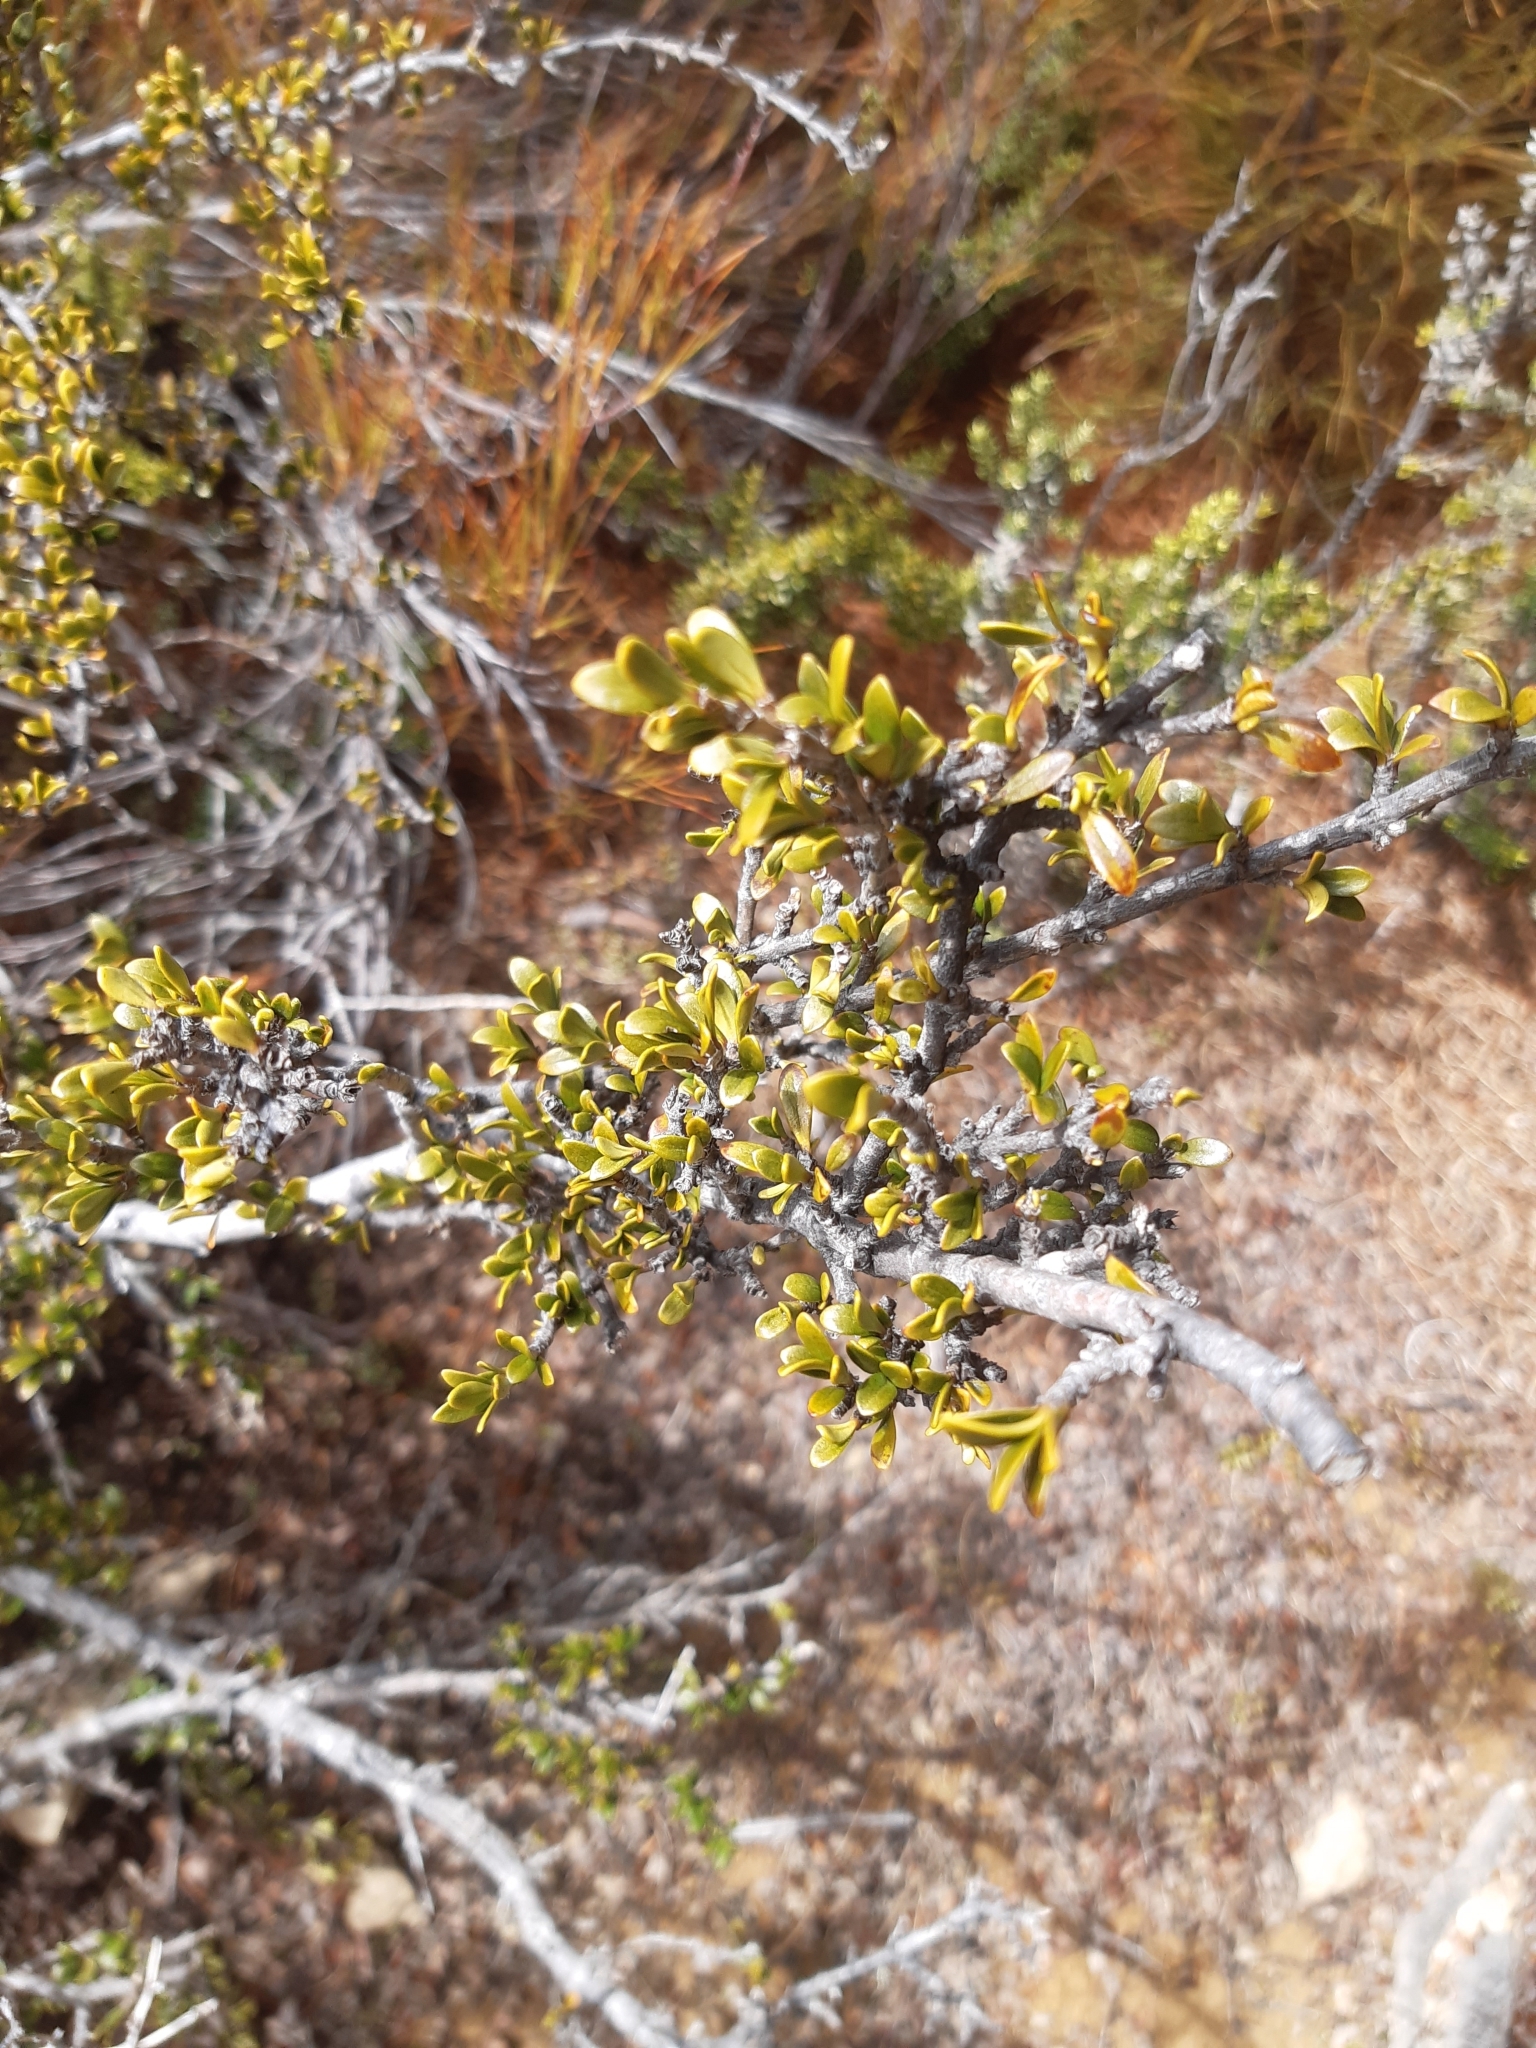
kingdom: Plantae
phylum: Tracheophyta
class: Magnoliopsida
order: Gentianales
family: Rubiaceae
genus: Coprosma
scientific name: Coprosma pseudocuneata
